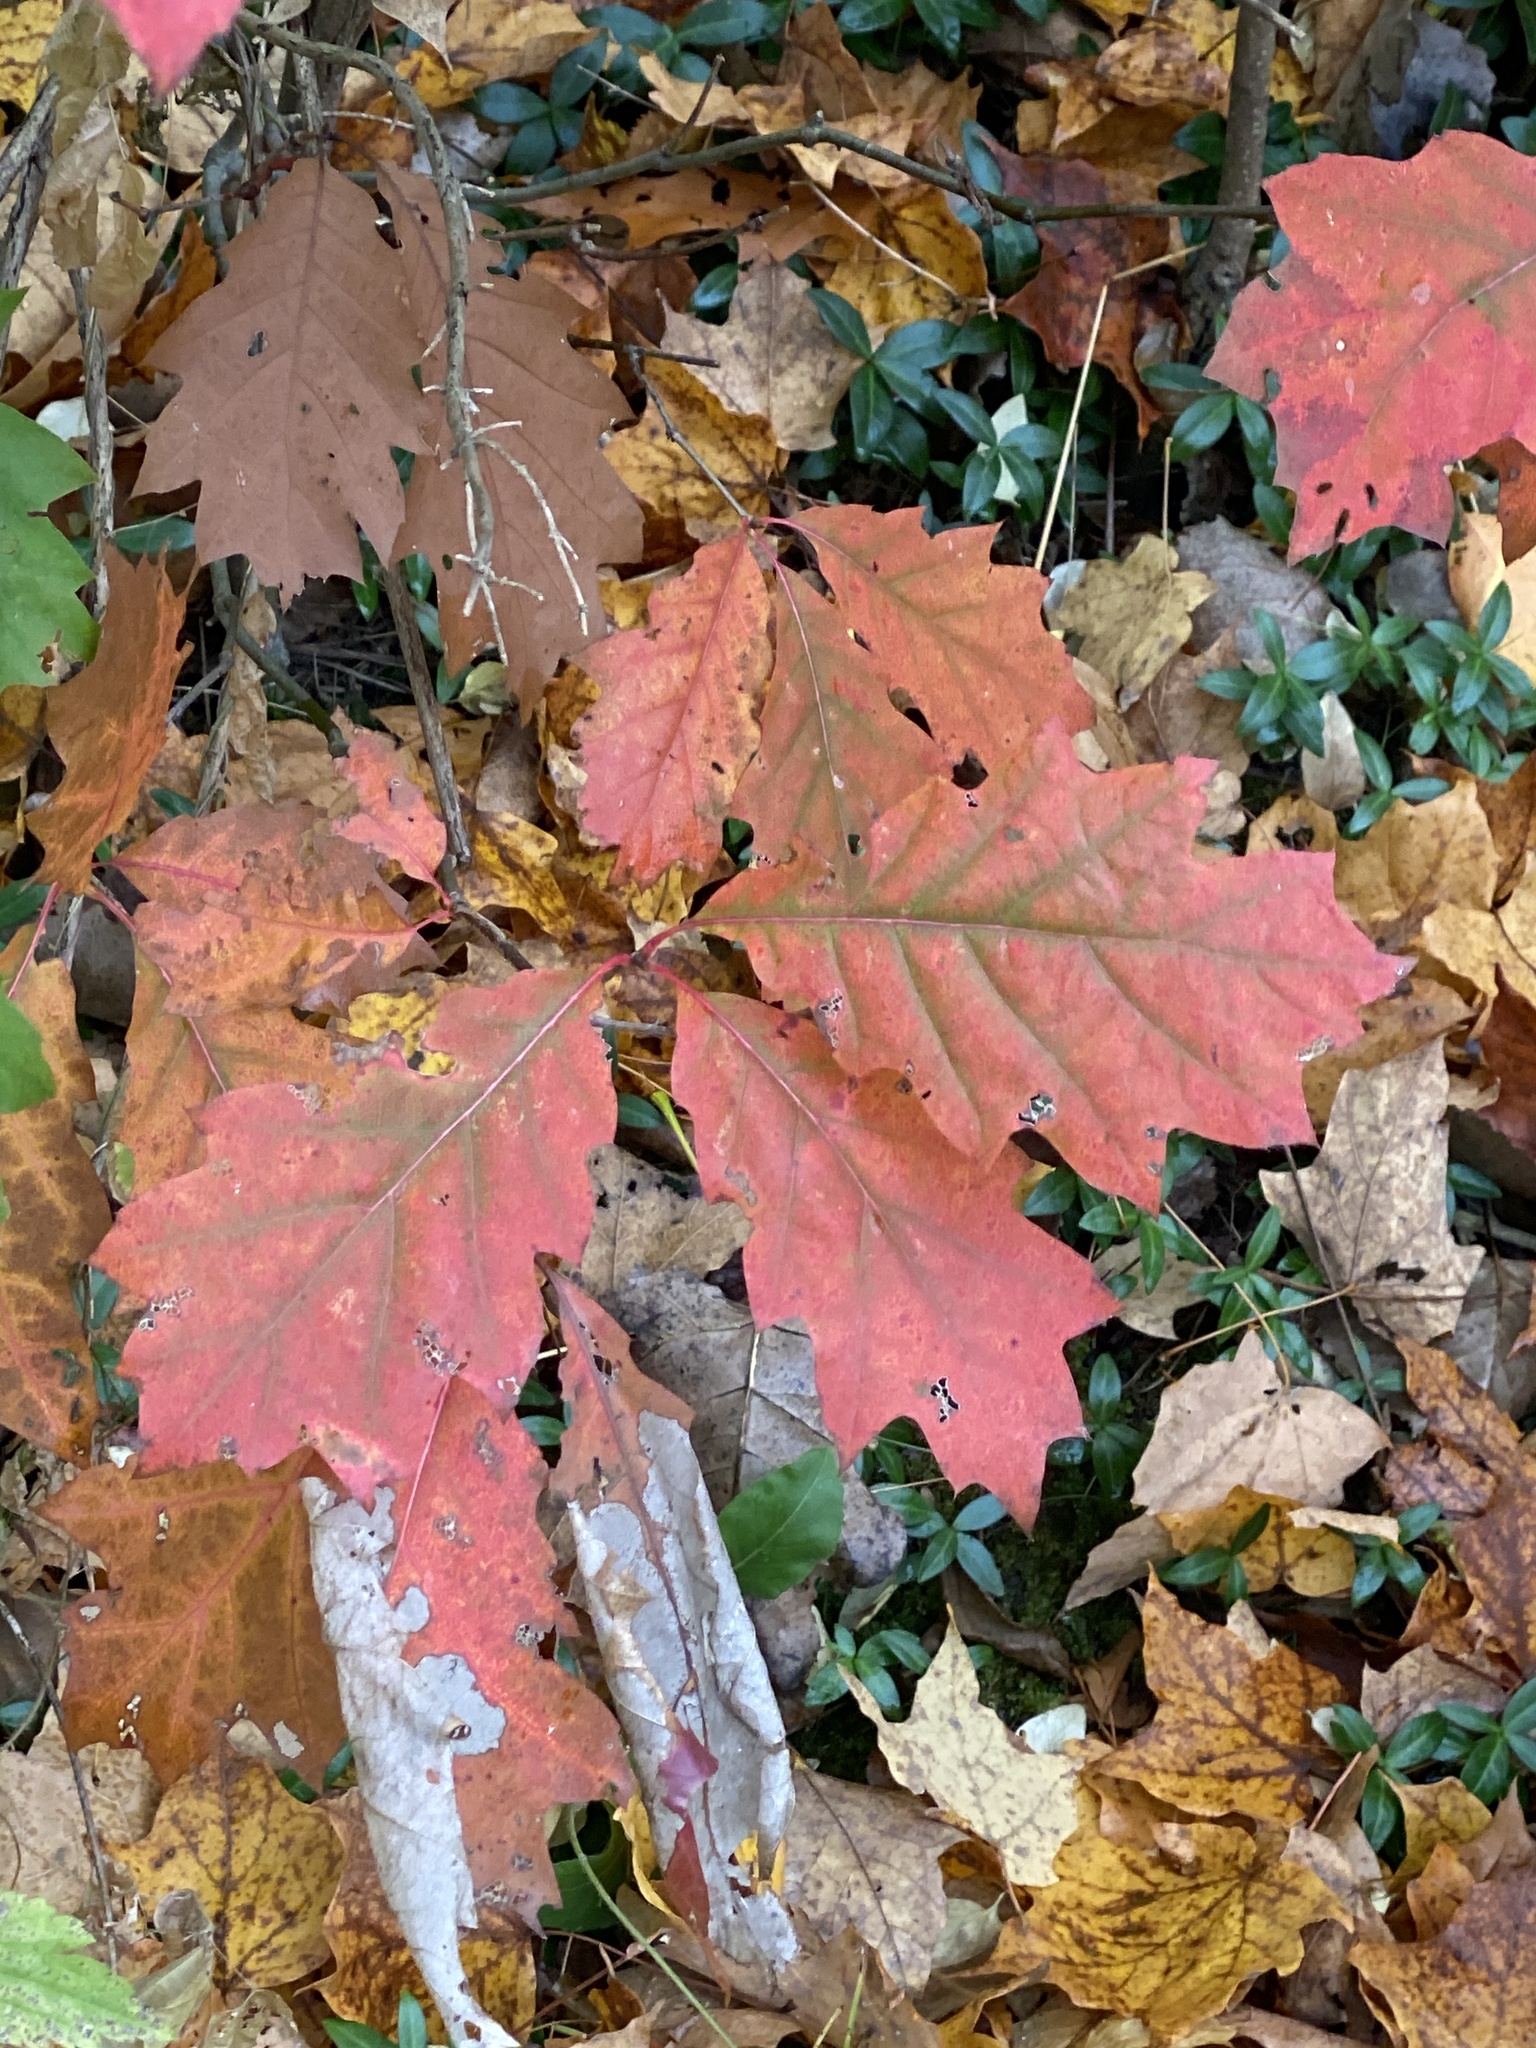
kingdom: Plantae
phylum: Tracheophyta
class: Magnoliopsida
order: Fagales
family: Fagaceae
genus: Quercus
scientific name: Quercus rubra
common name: Red oak
